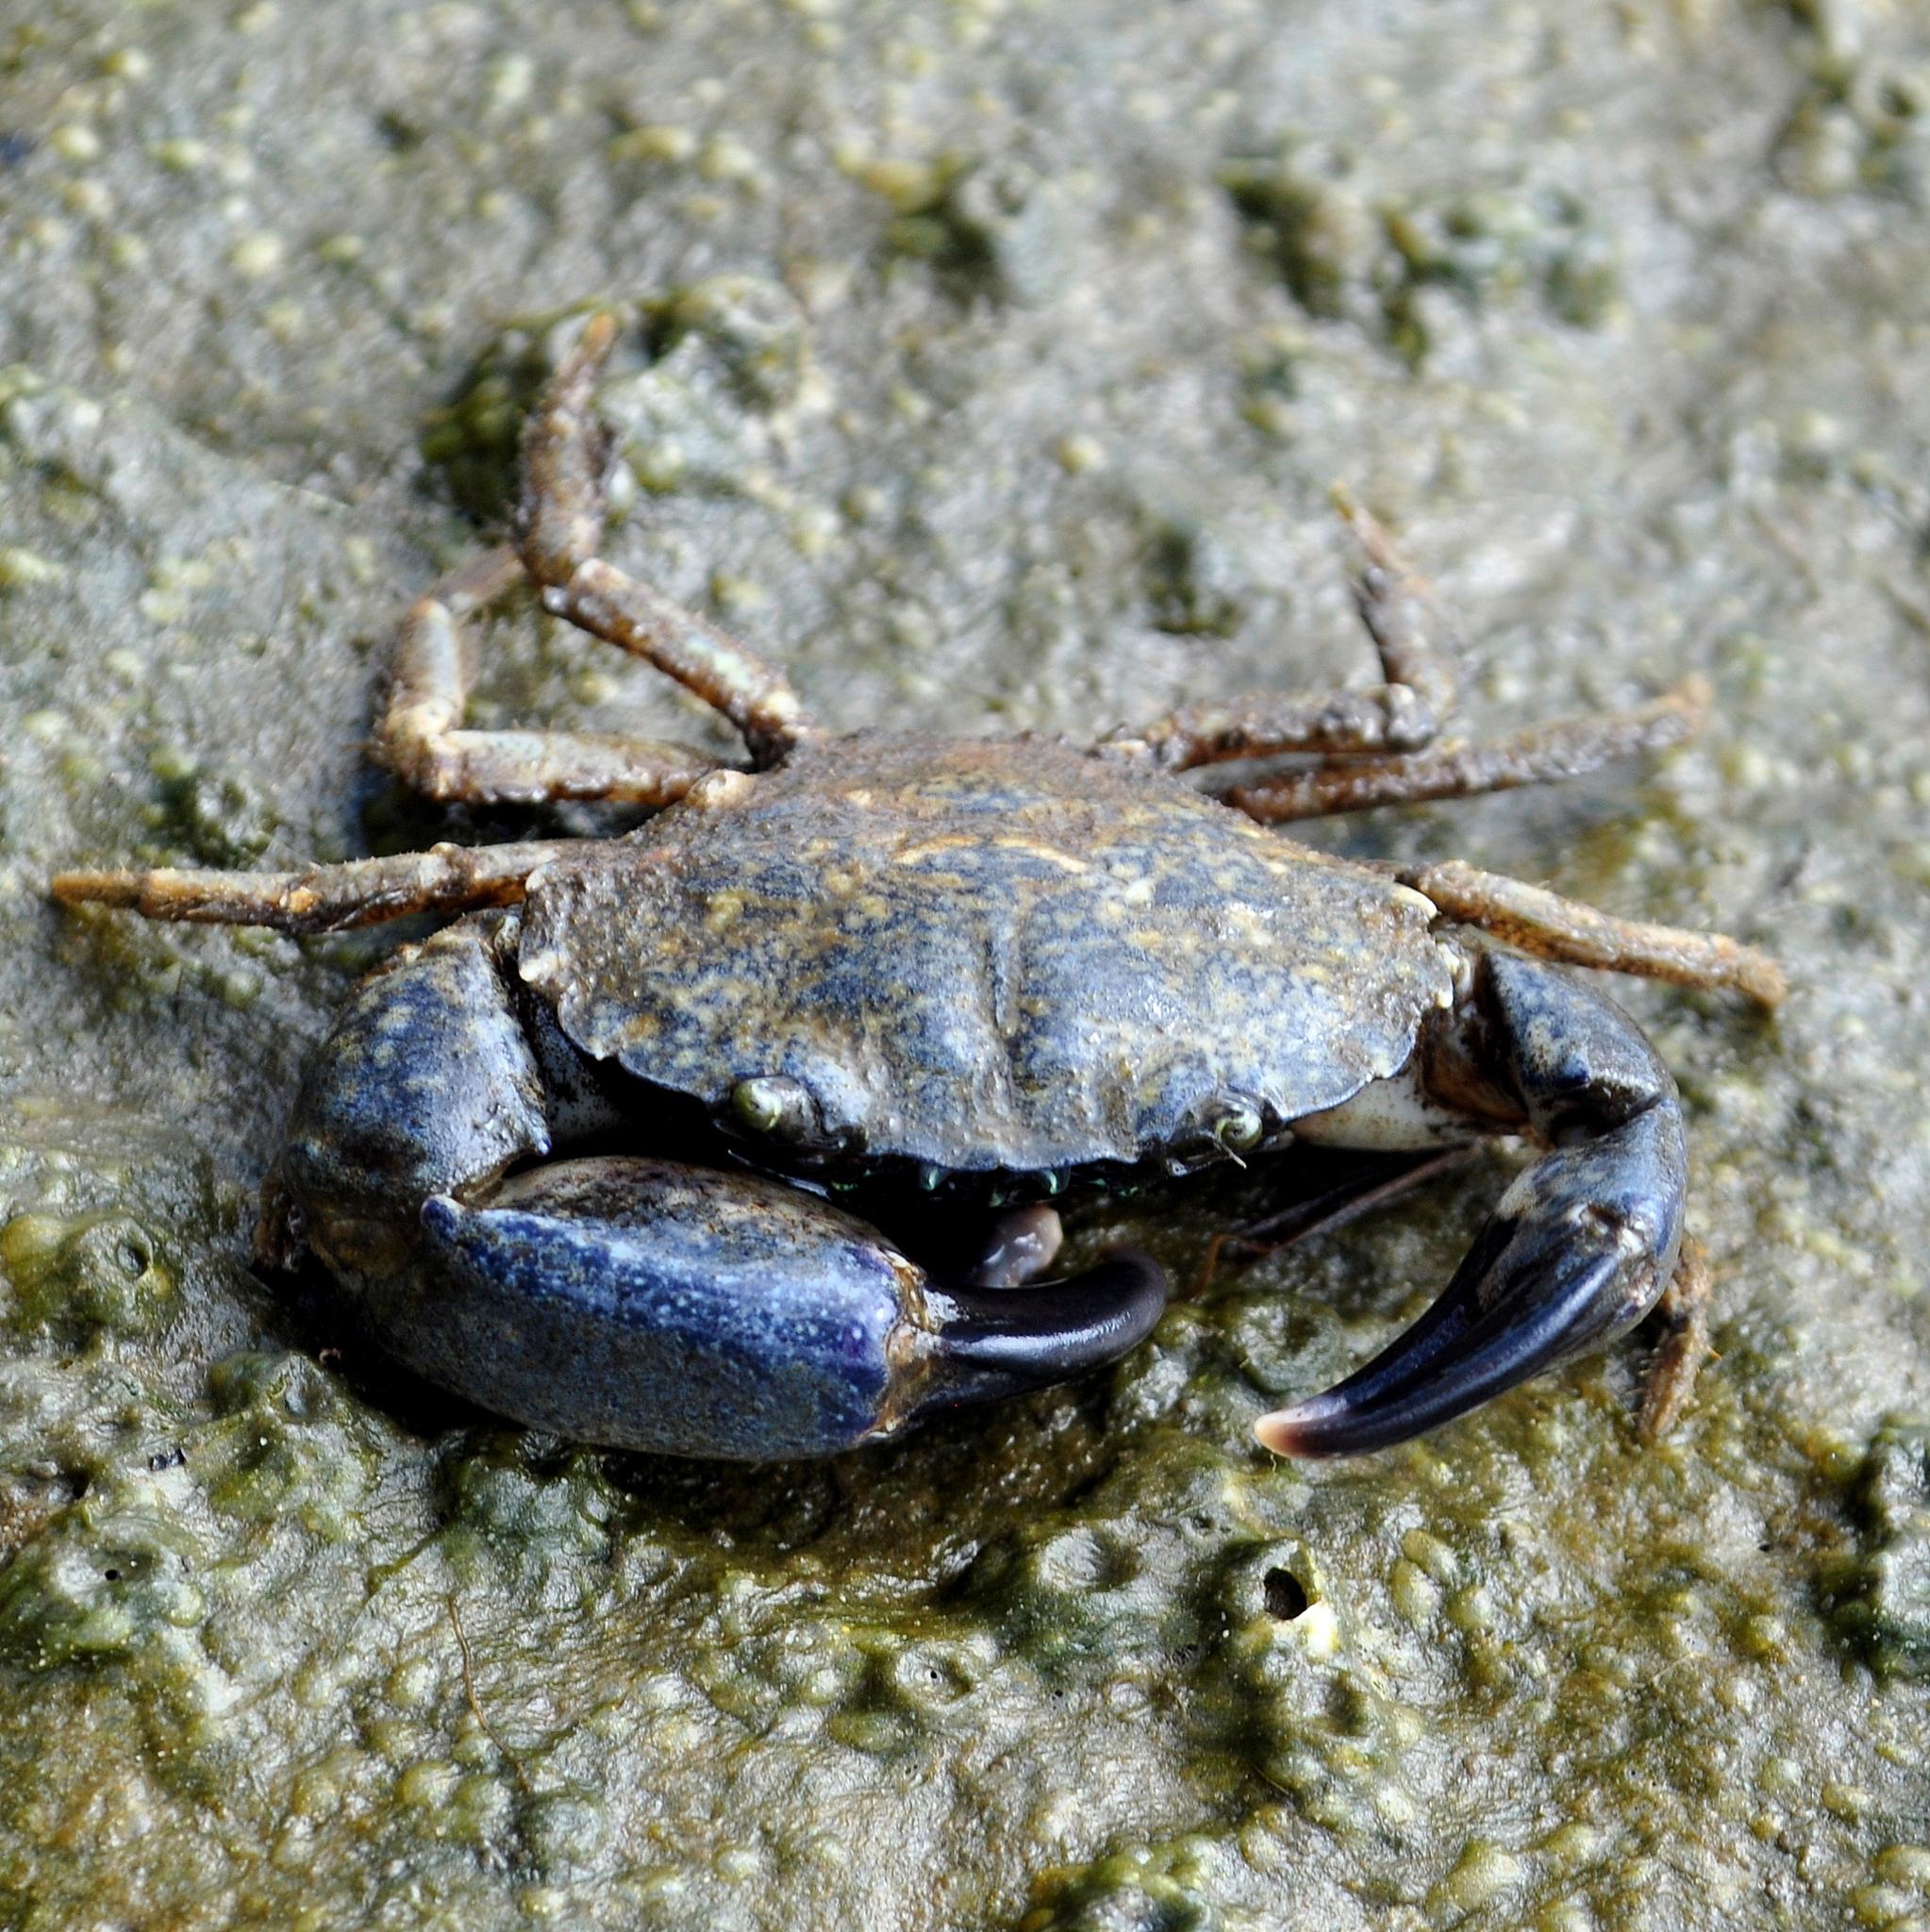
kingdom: Animalia
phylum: Arthropoda
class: Malacostraca
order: Decapoda
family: Panopeidae
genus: Eurypanopeus
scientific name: Eurypanopeus depressus
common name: Flat mud crab
